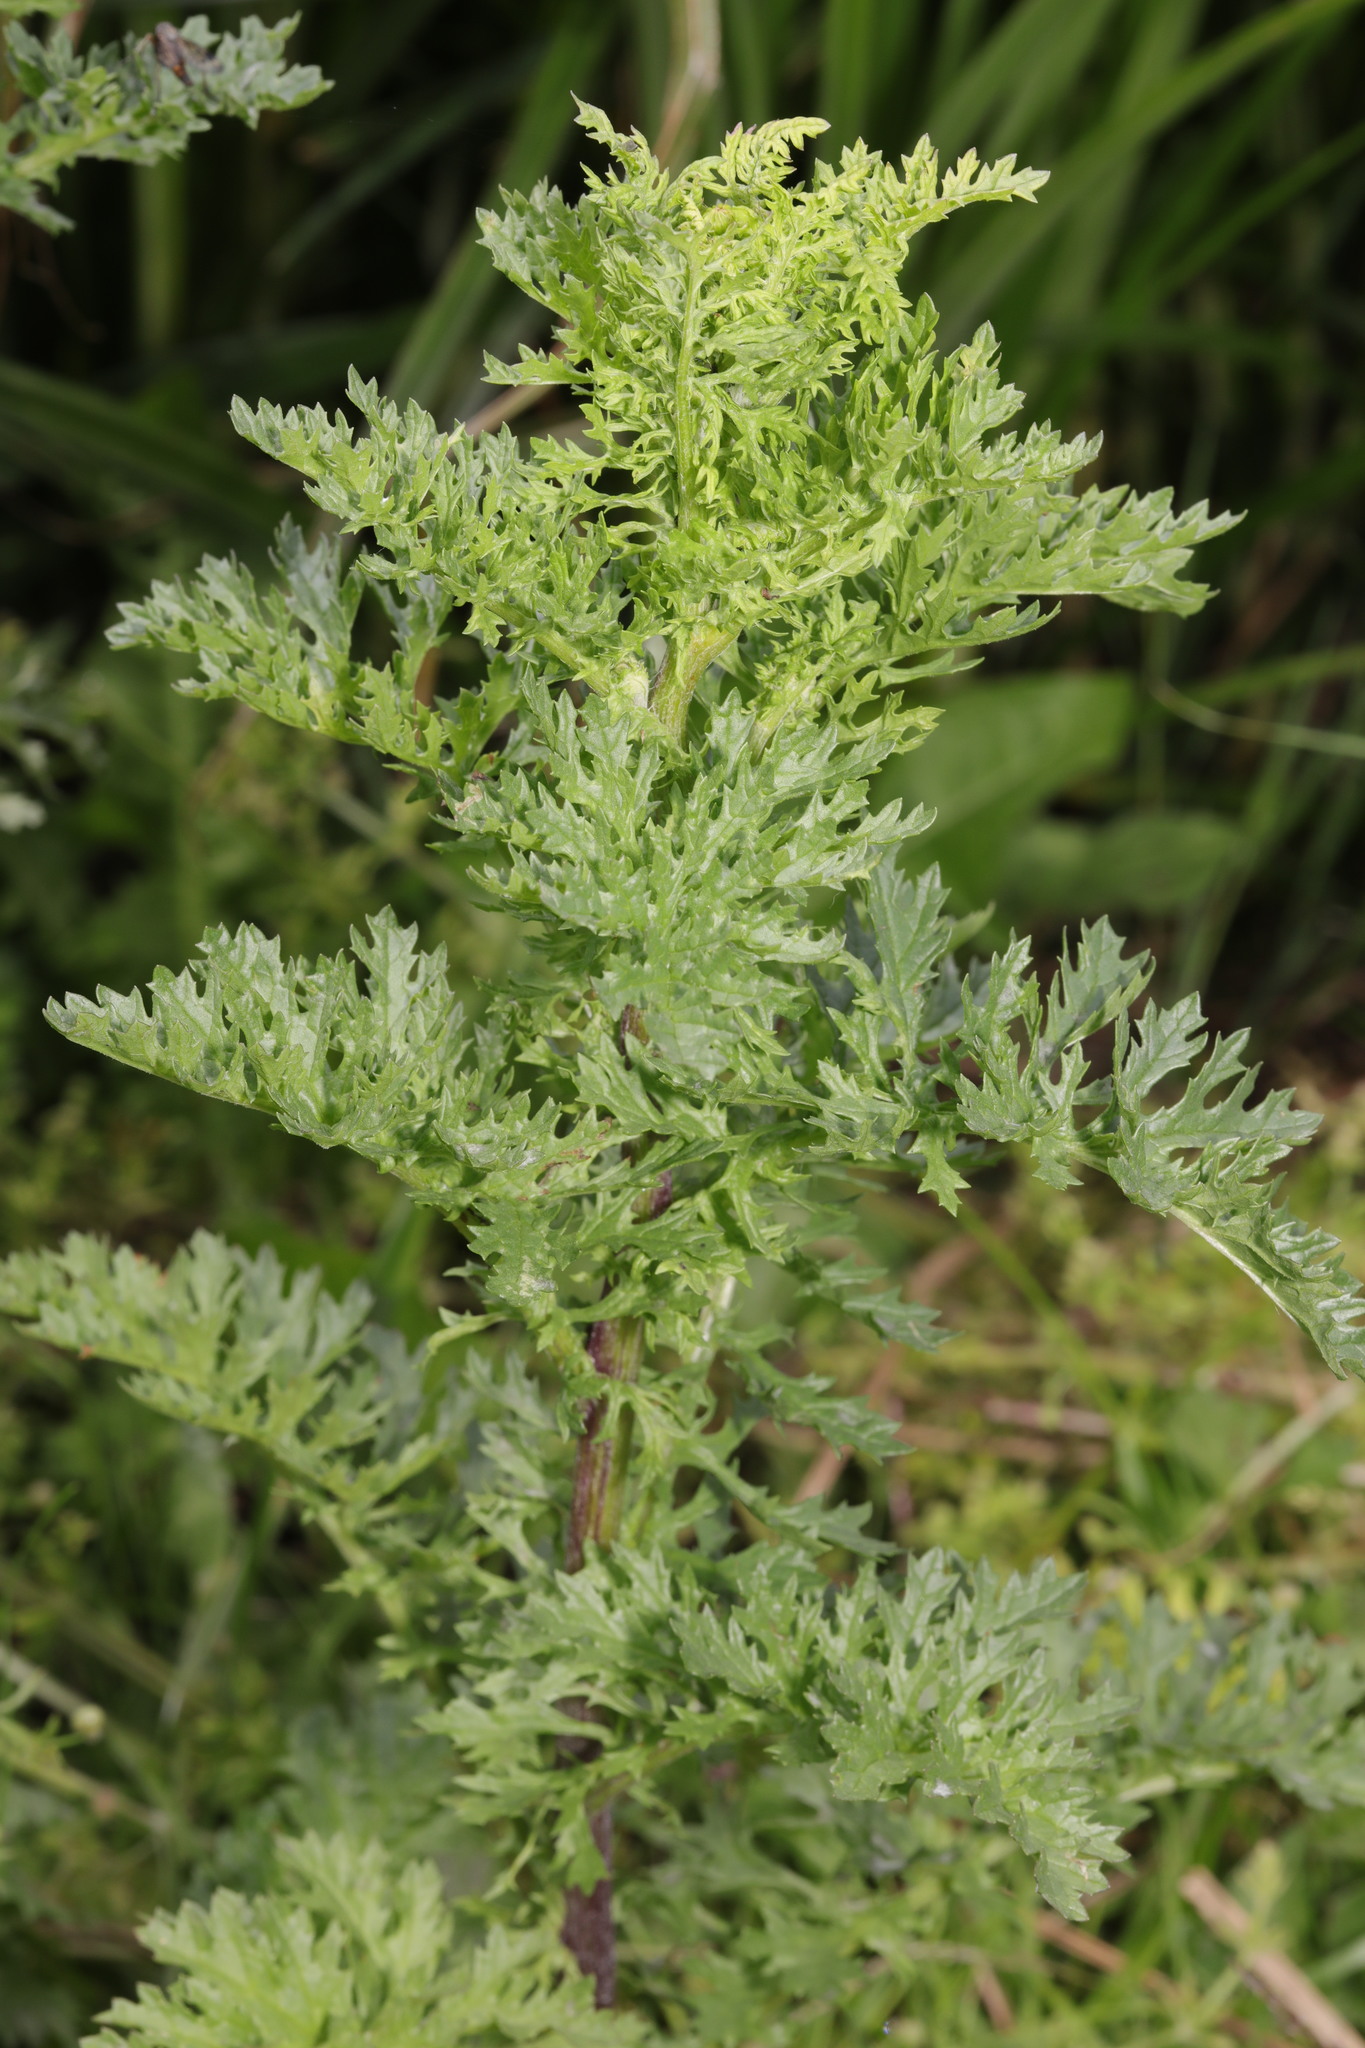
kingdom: Plantae
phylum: Tracheophyta
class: Magnoliopsida
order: Asterales
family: Asteraceae
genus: Jacobaea
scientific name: Jacobaea vulgaris
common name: Stinking willie
